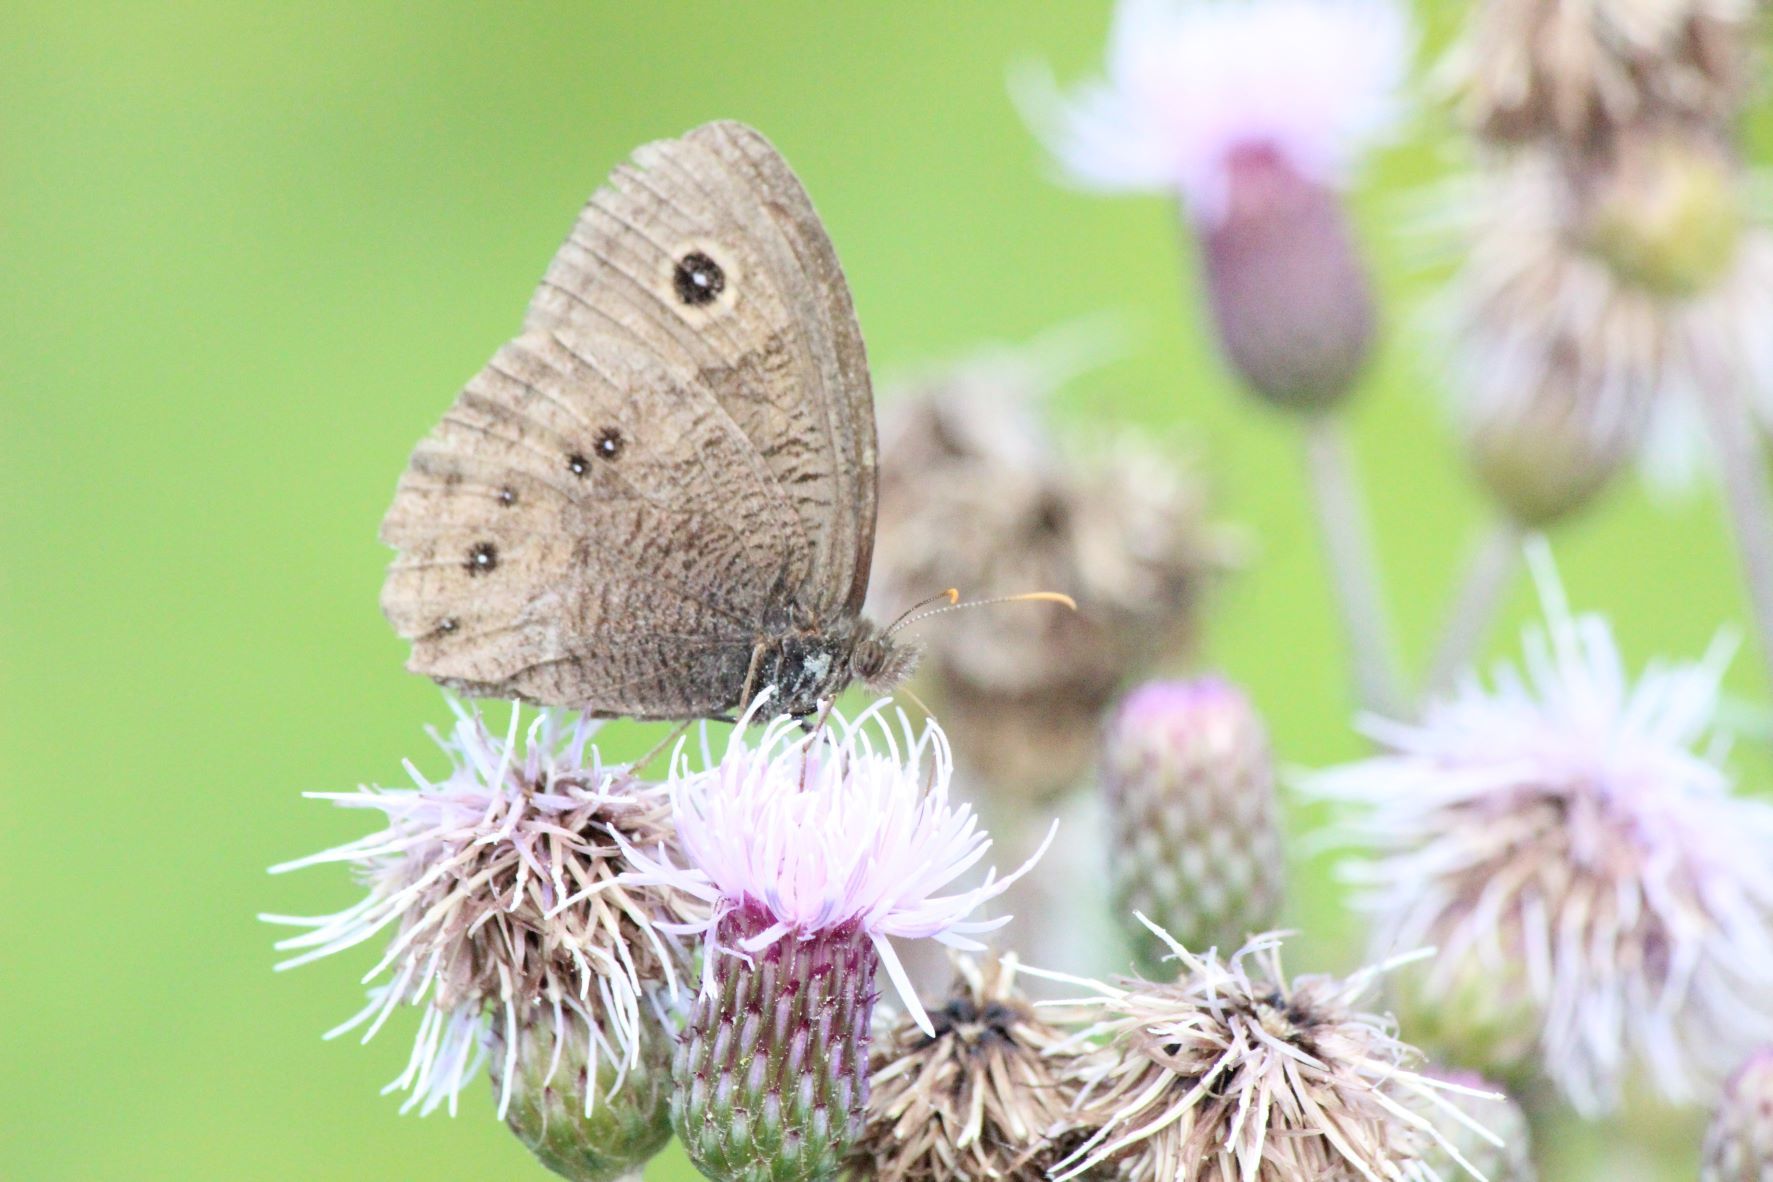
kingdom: Animalia
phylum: Arthropoda
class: Insecta
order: Lepidoptera
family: Nymphalidae
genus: Cercyonis
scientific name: Cercyonis pegala
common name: Common wood-nymph
